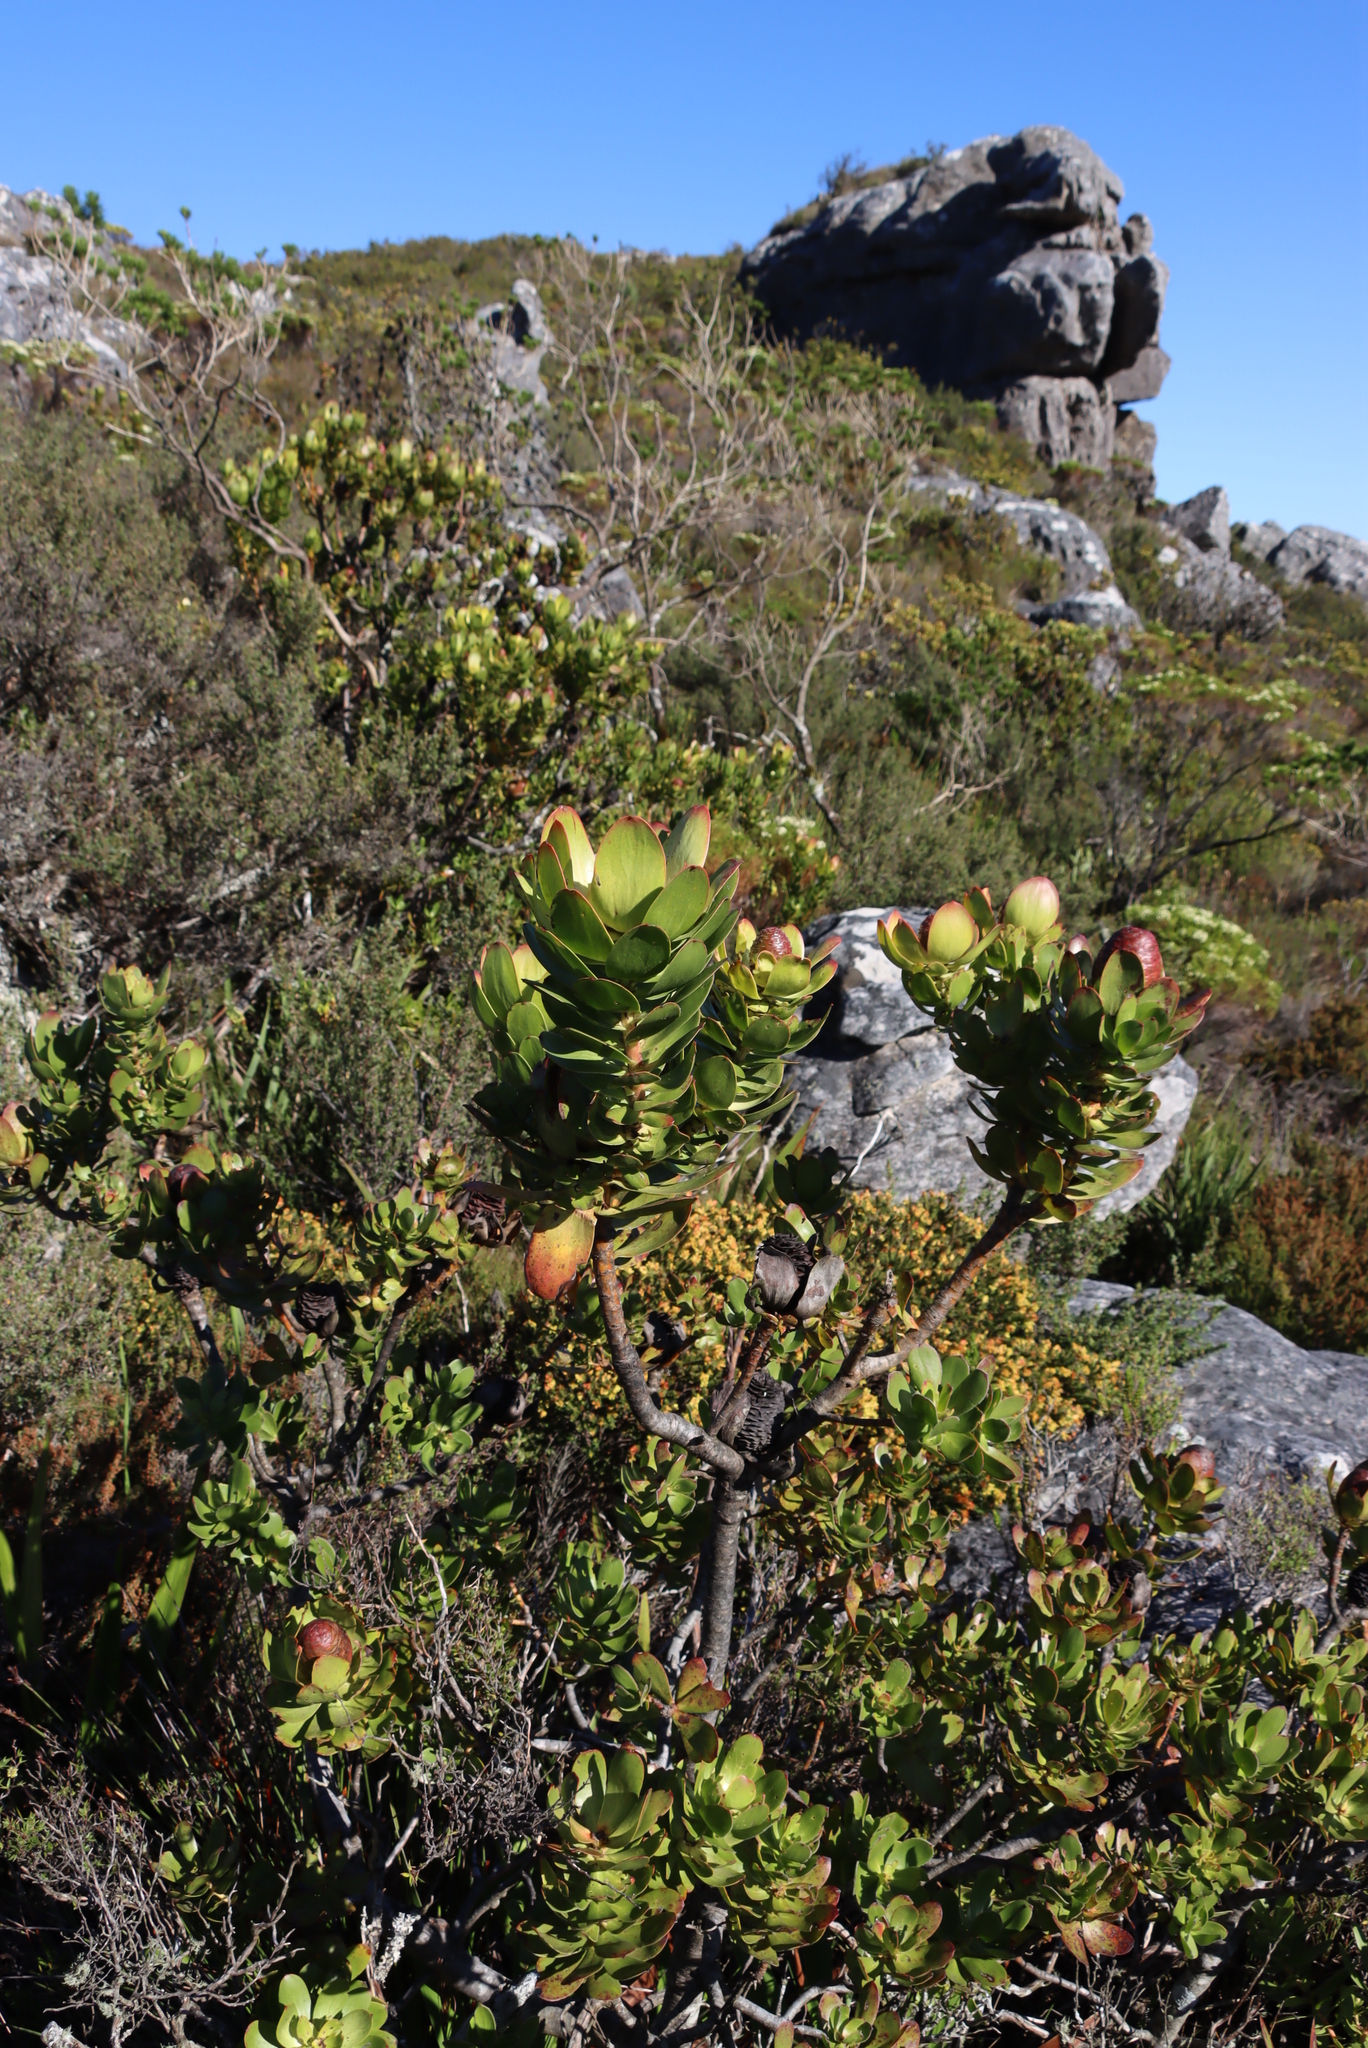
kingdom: Plantae
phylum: Tracheophyta
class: Magnoliopsida
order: Proteales
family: Proteaceae
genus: Leucadendron
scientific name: Leucadendron strobilinum
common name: Mountain rose
